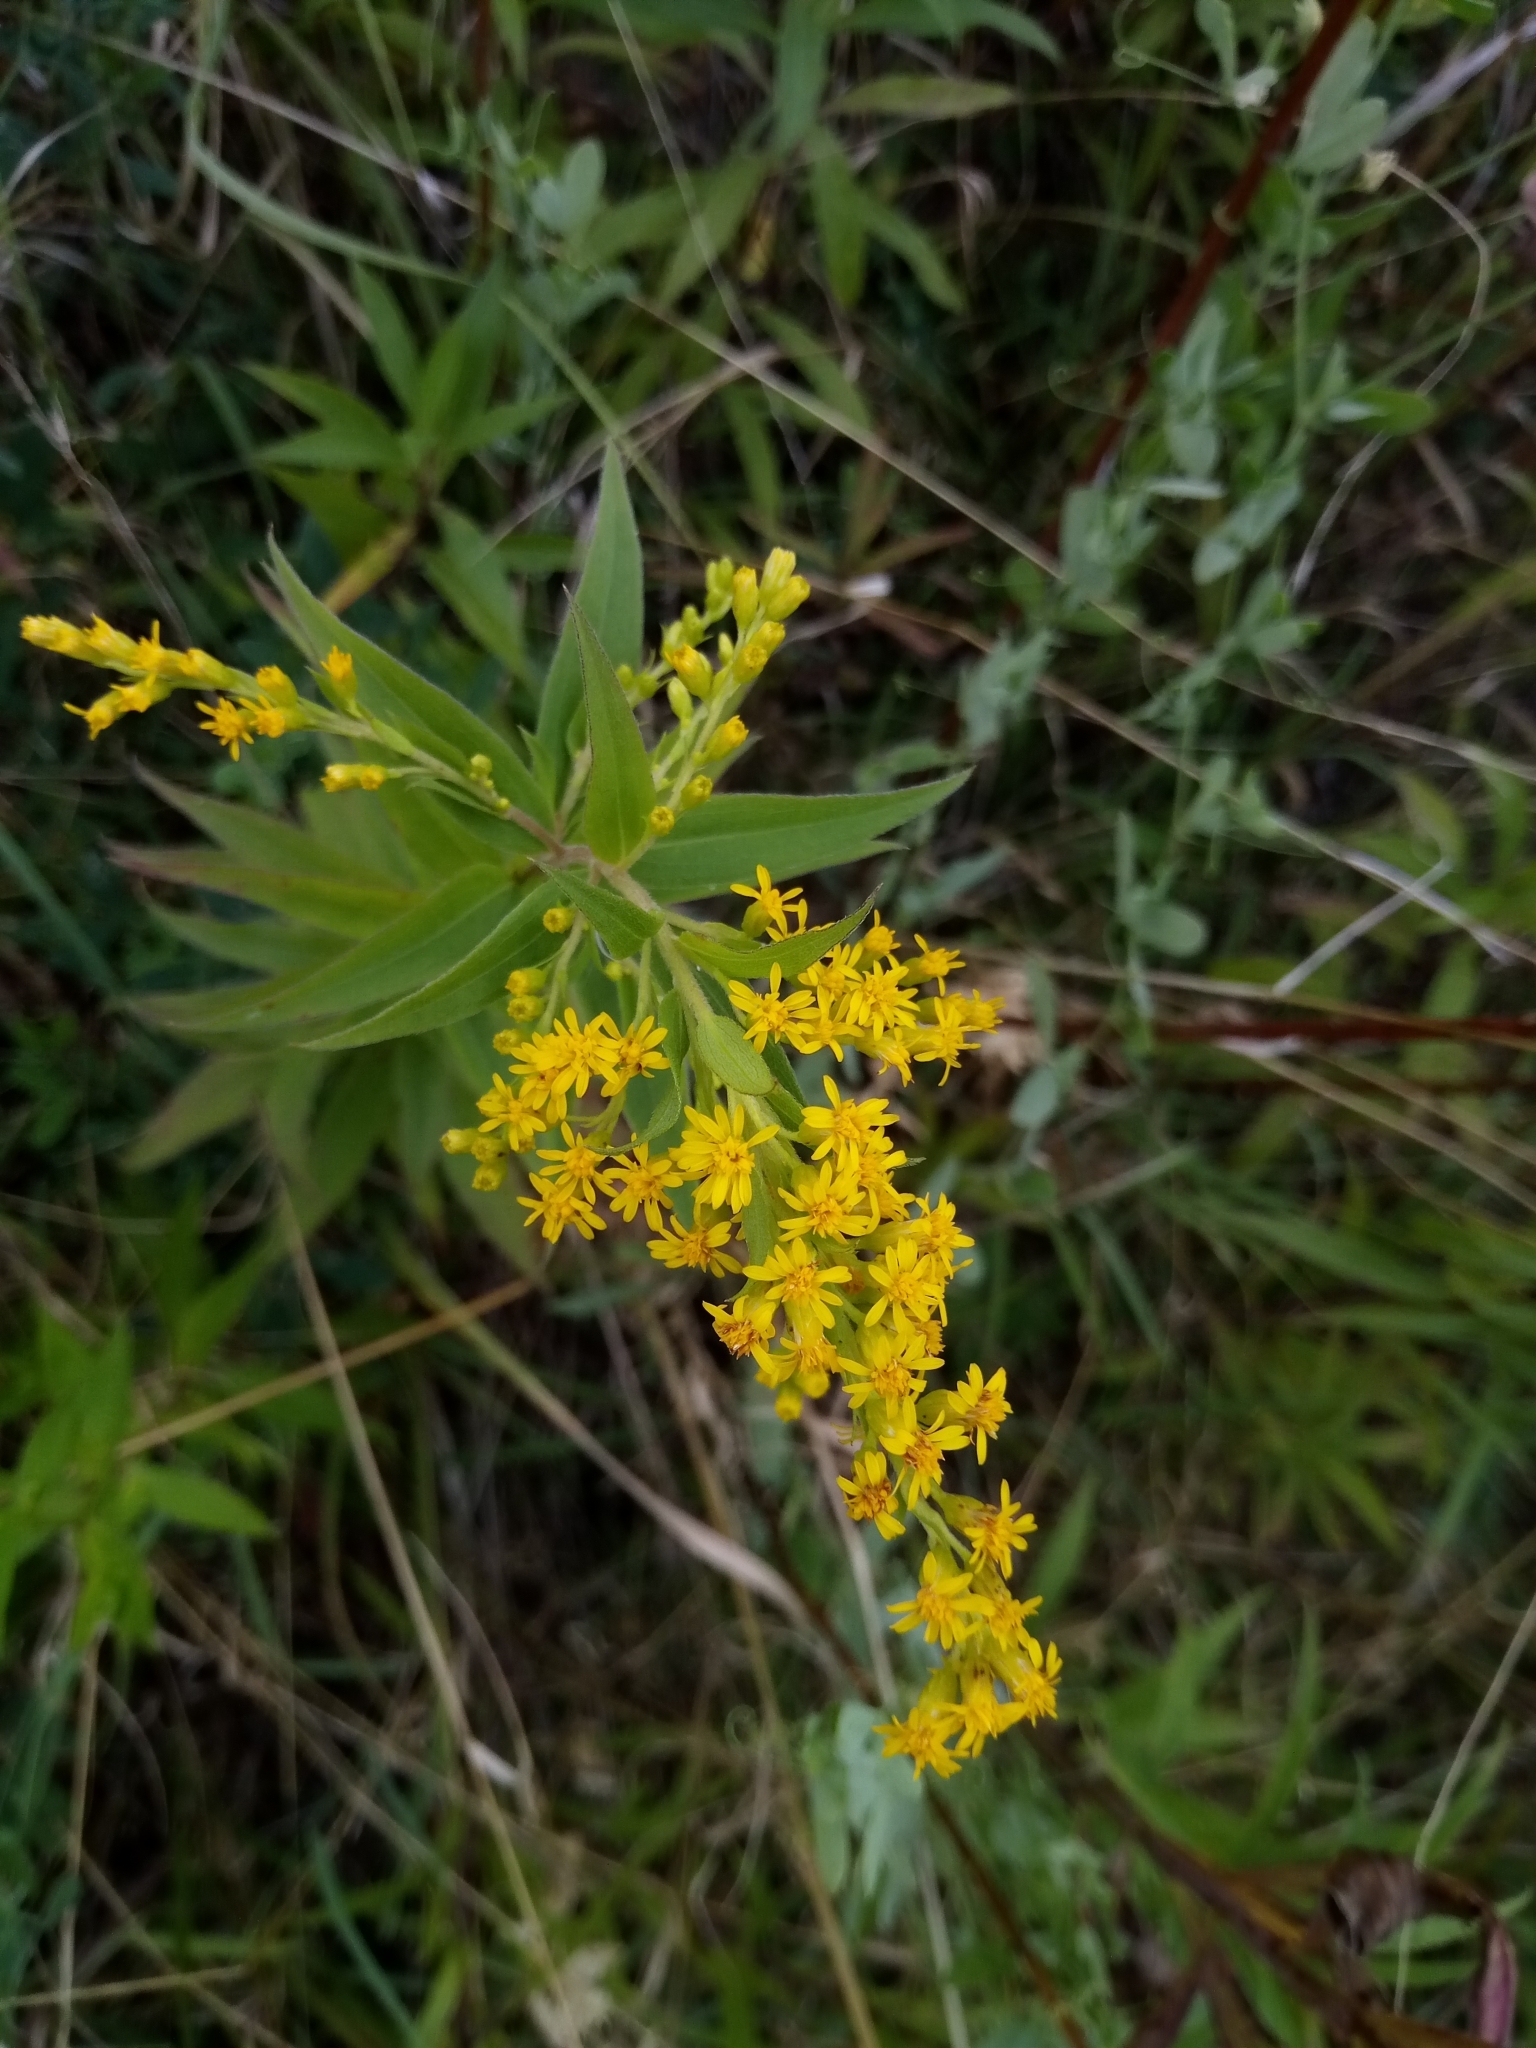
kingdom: Plantae
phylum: Tracheophyta
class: Magnoliopsida
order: Asterales
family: Asteraceae
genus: Solidago
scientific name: Solidago canadensis
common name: Canada goldenrod
